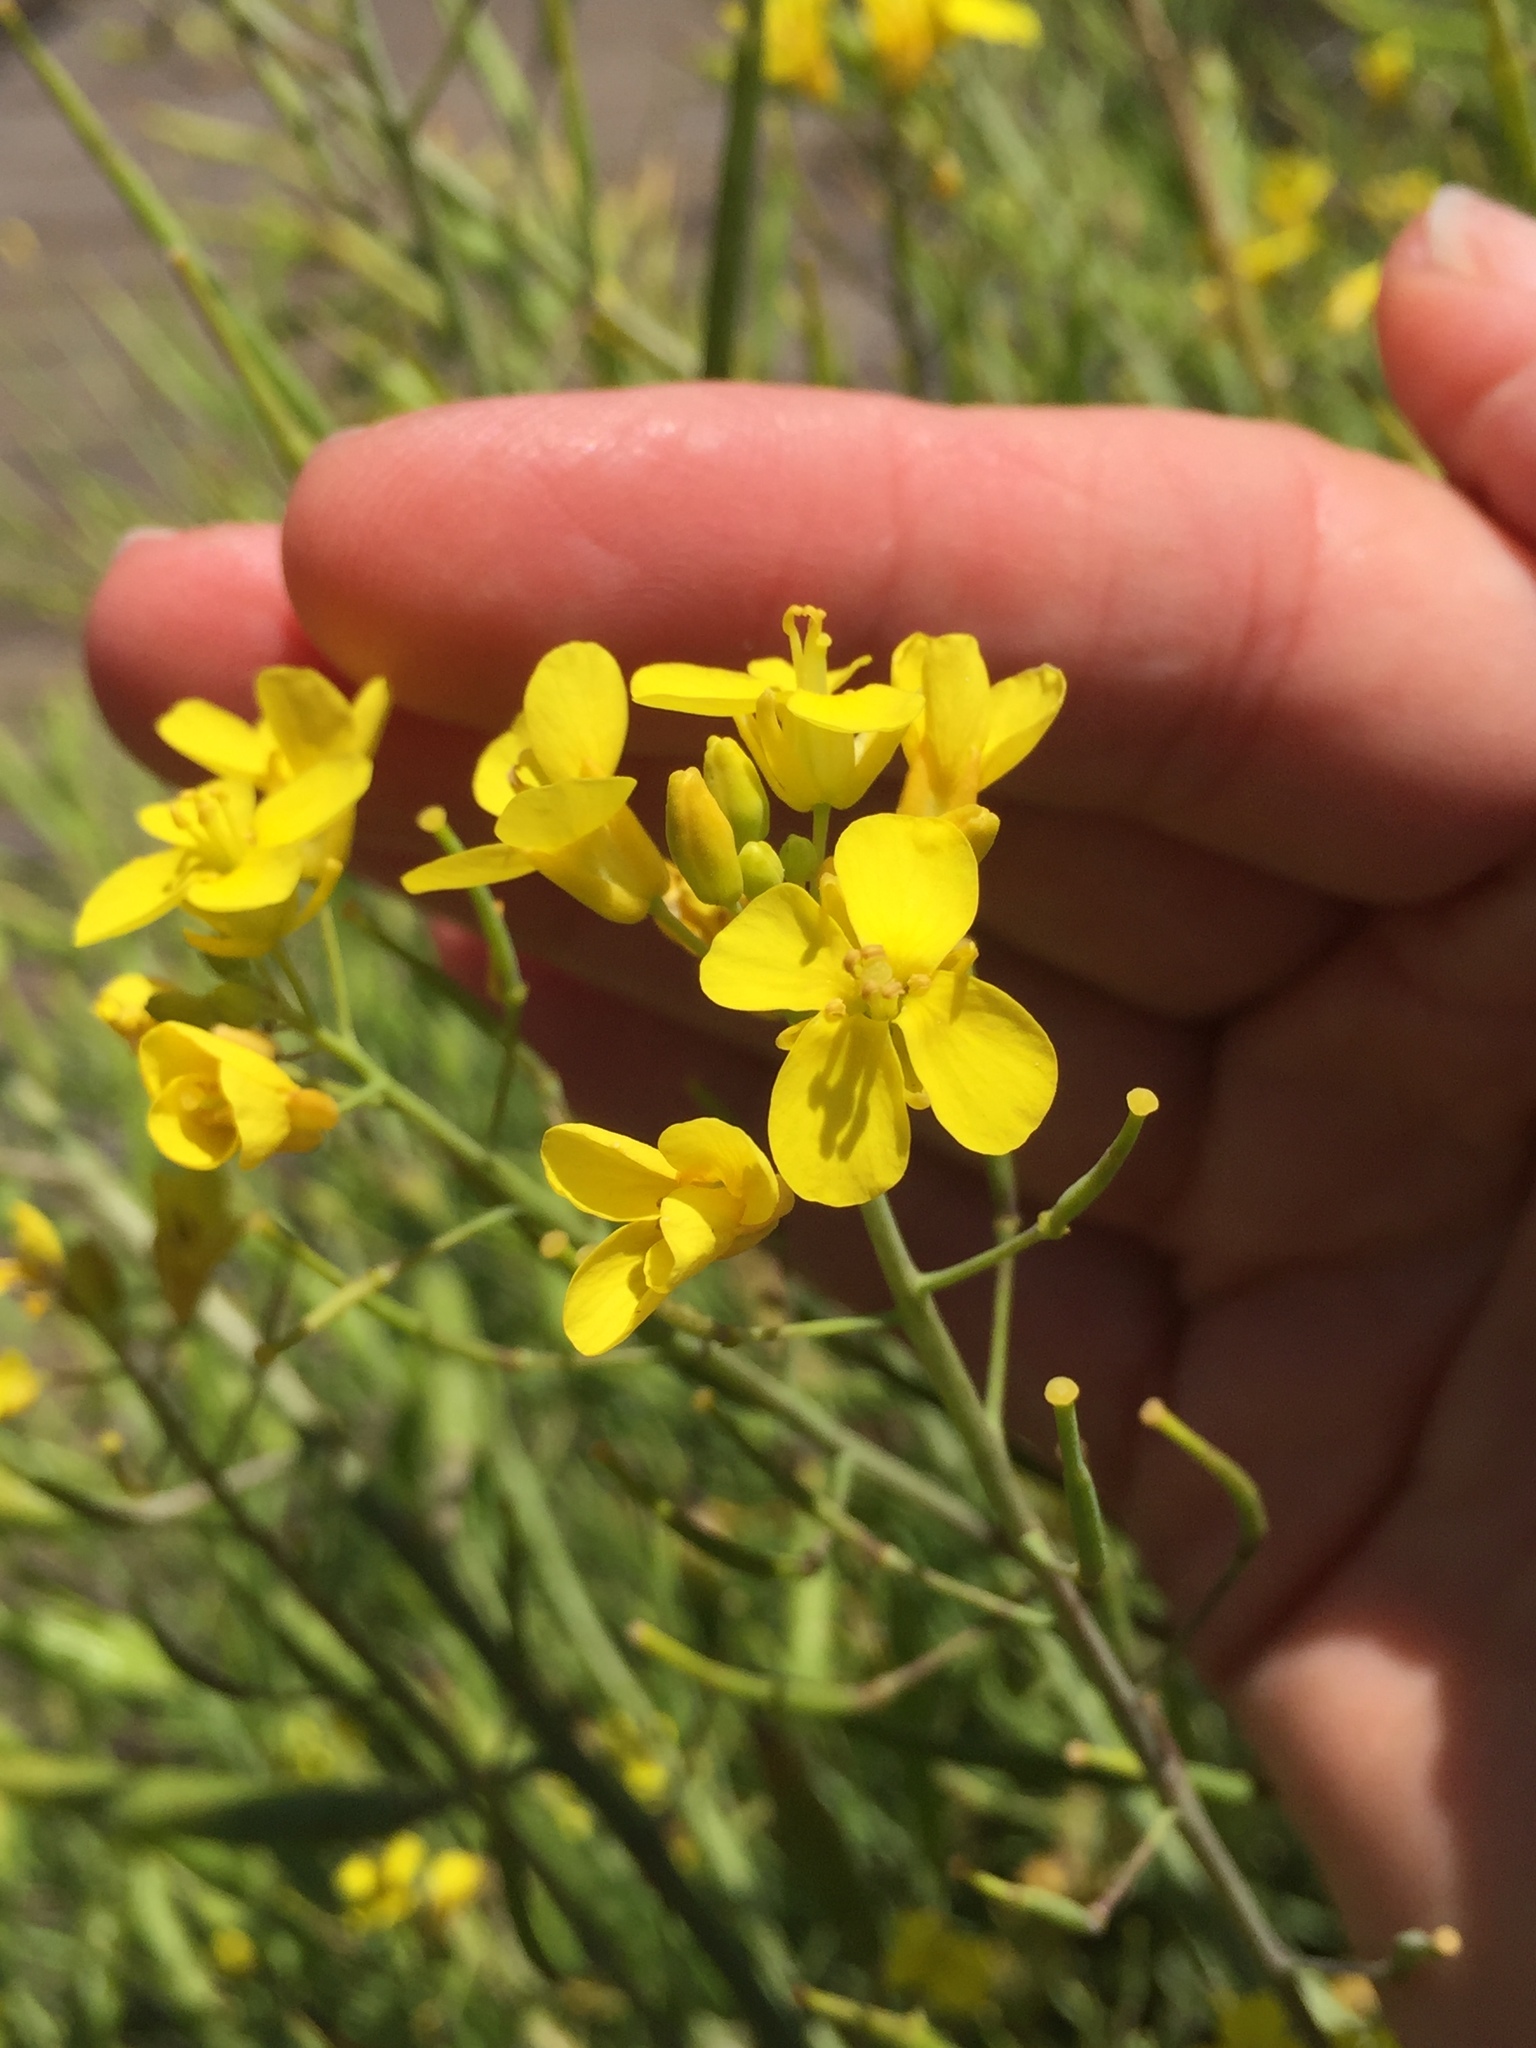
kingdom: Plantae
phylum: Tracheophyta
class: Magnoliopsida
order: Brassicales
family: Brassicaceae
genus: Erysimum
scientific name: Erysimum capitatum
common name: Western wallflower
